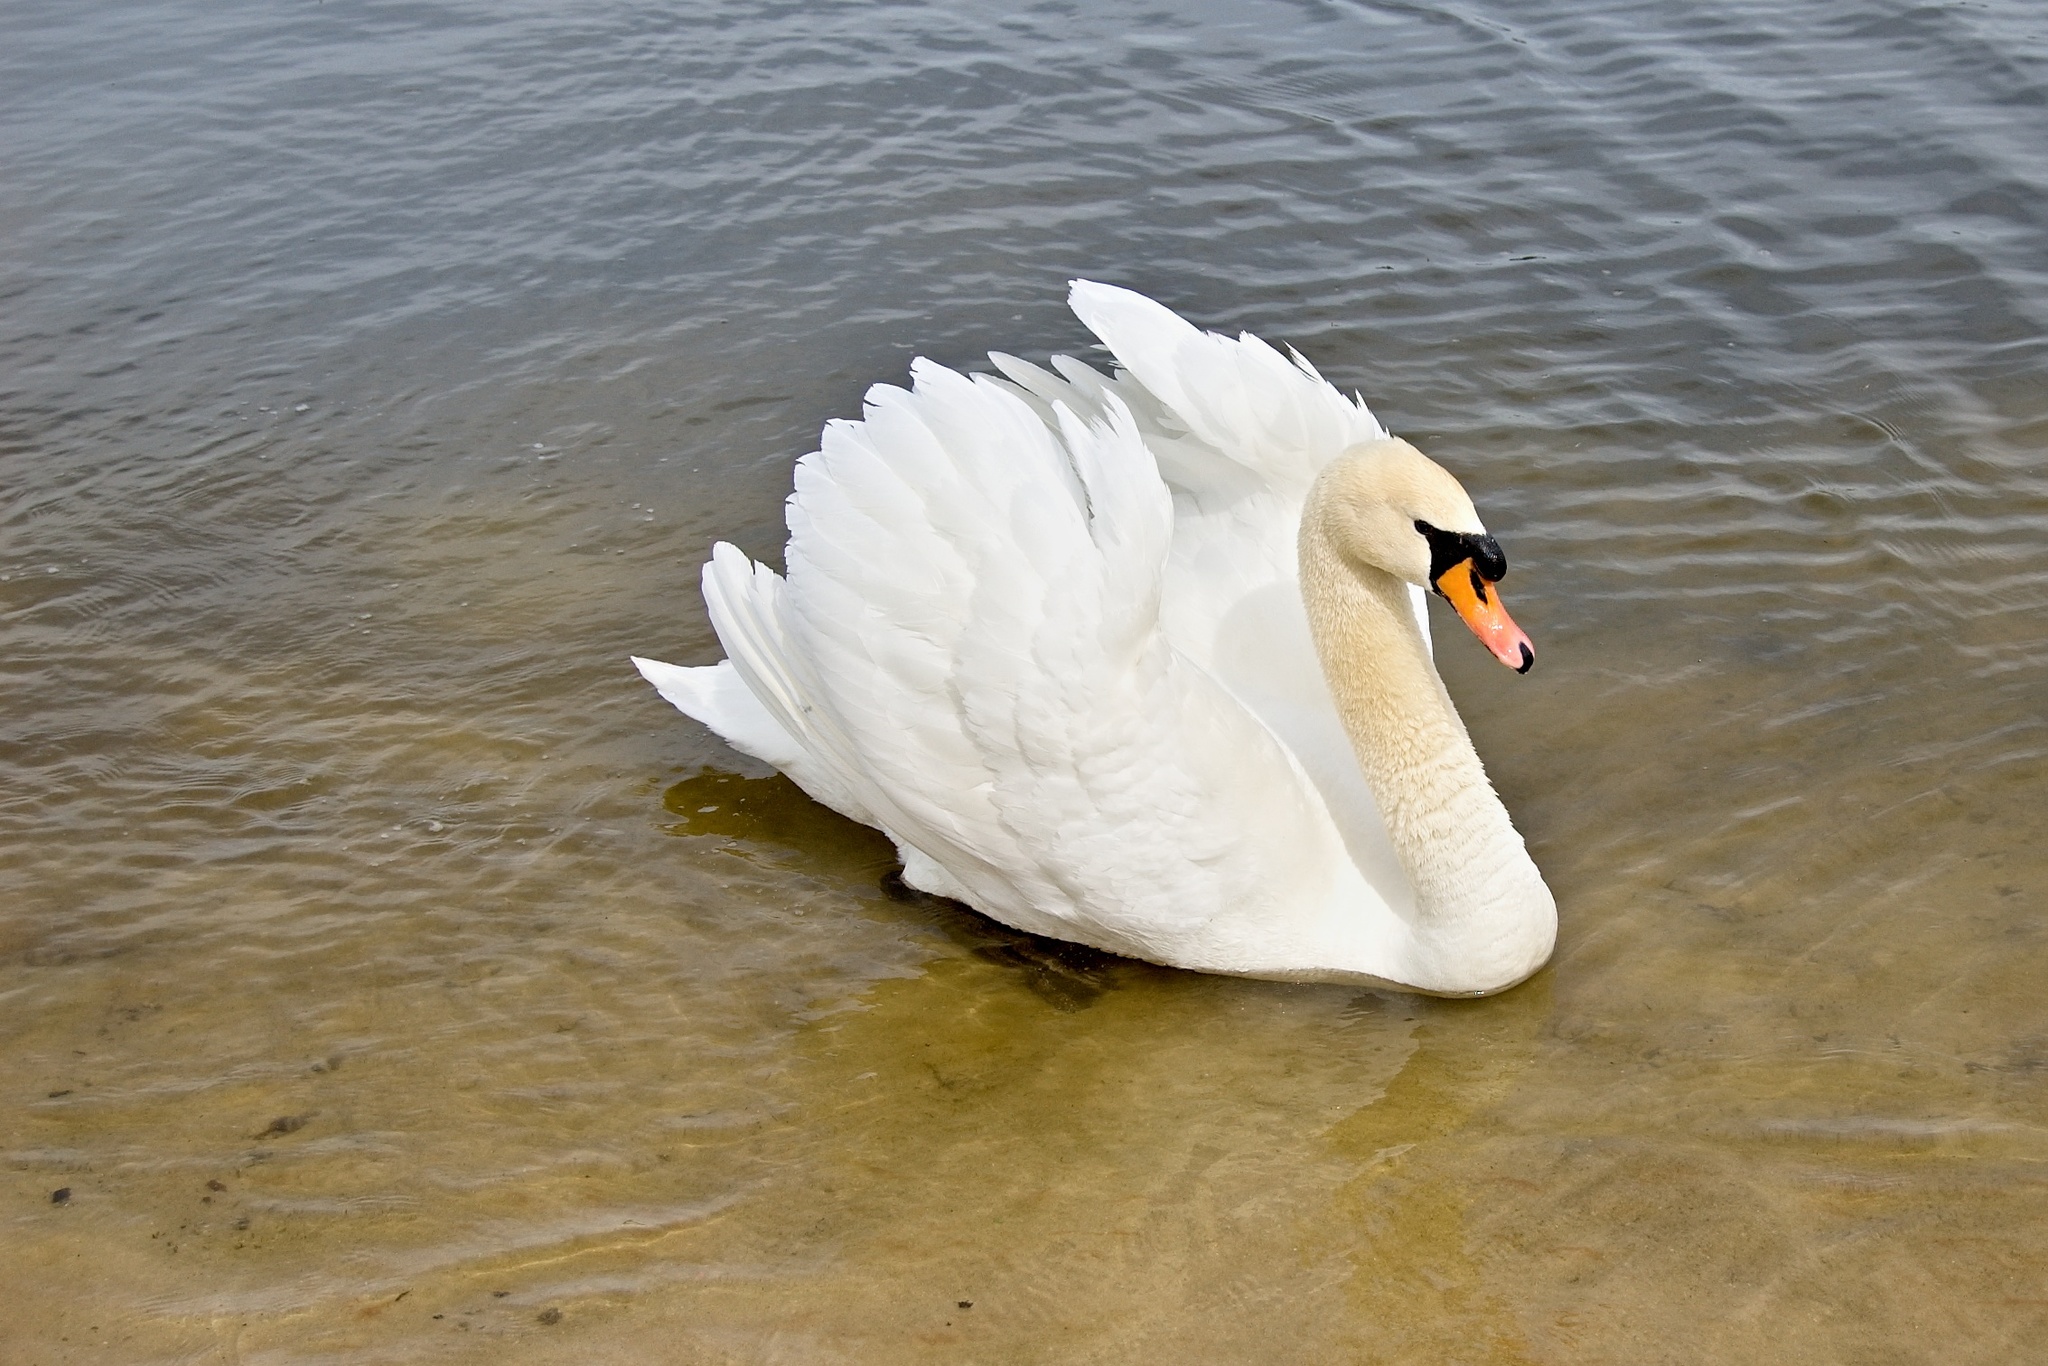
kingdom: Animalia
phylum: Chordata
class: Aves
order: Anseriformes
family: Anatidae
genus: Cygnus
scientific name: Cygnus olor
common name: Mute swan
